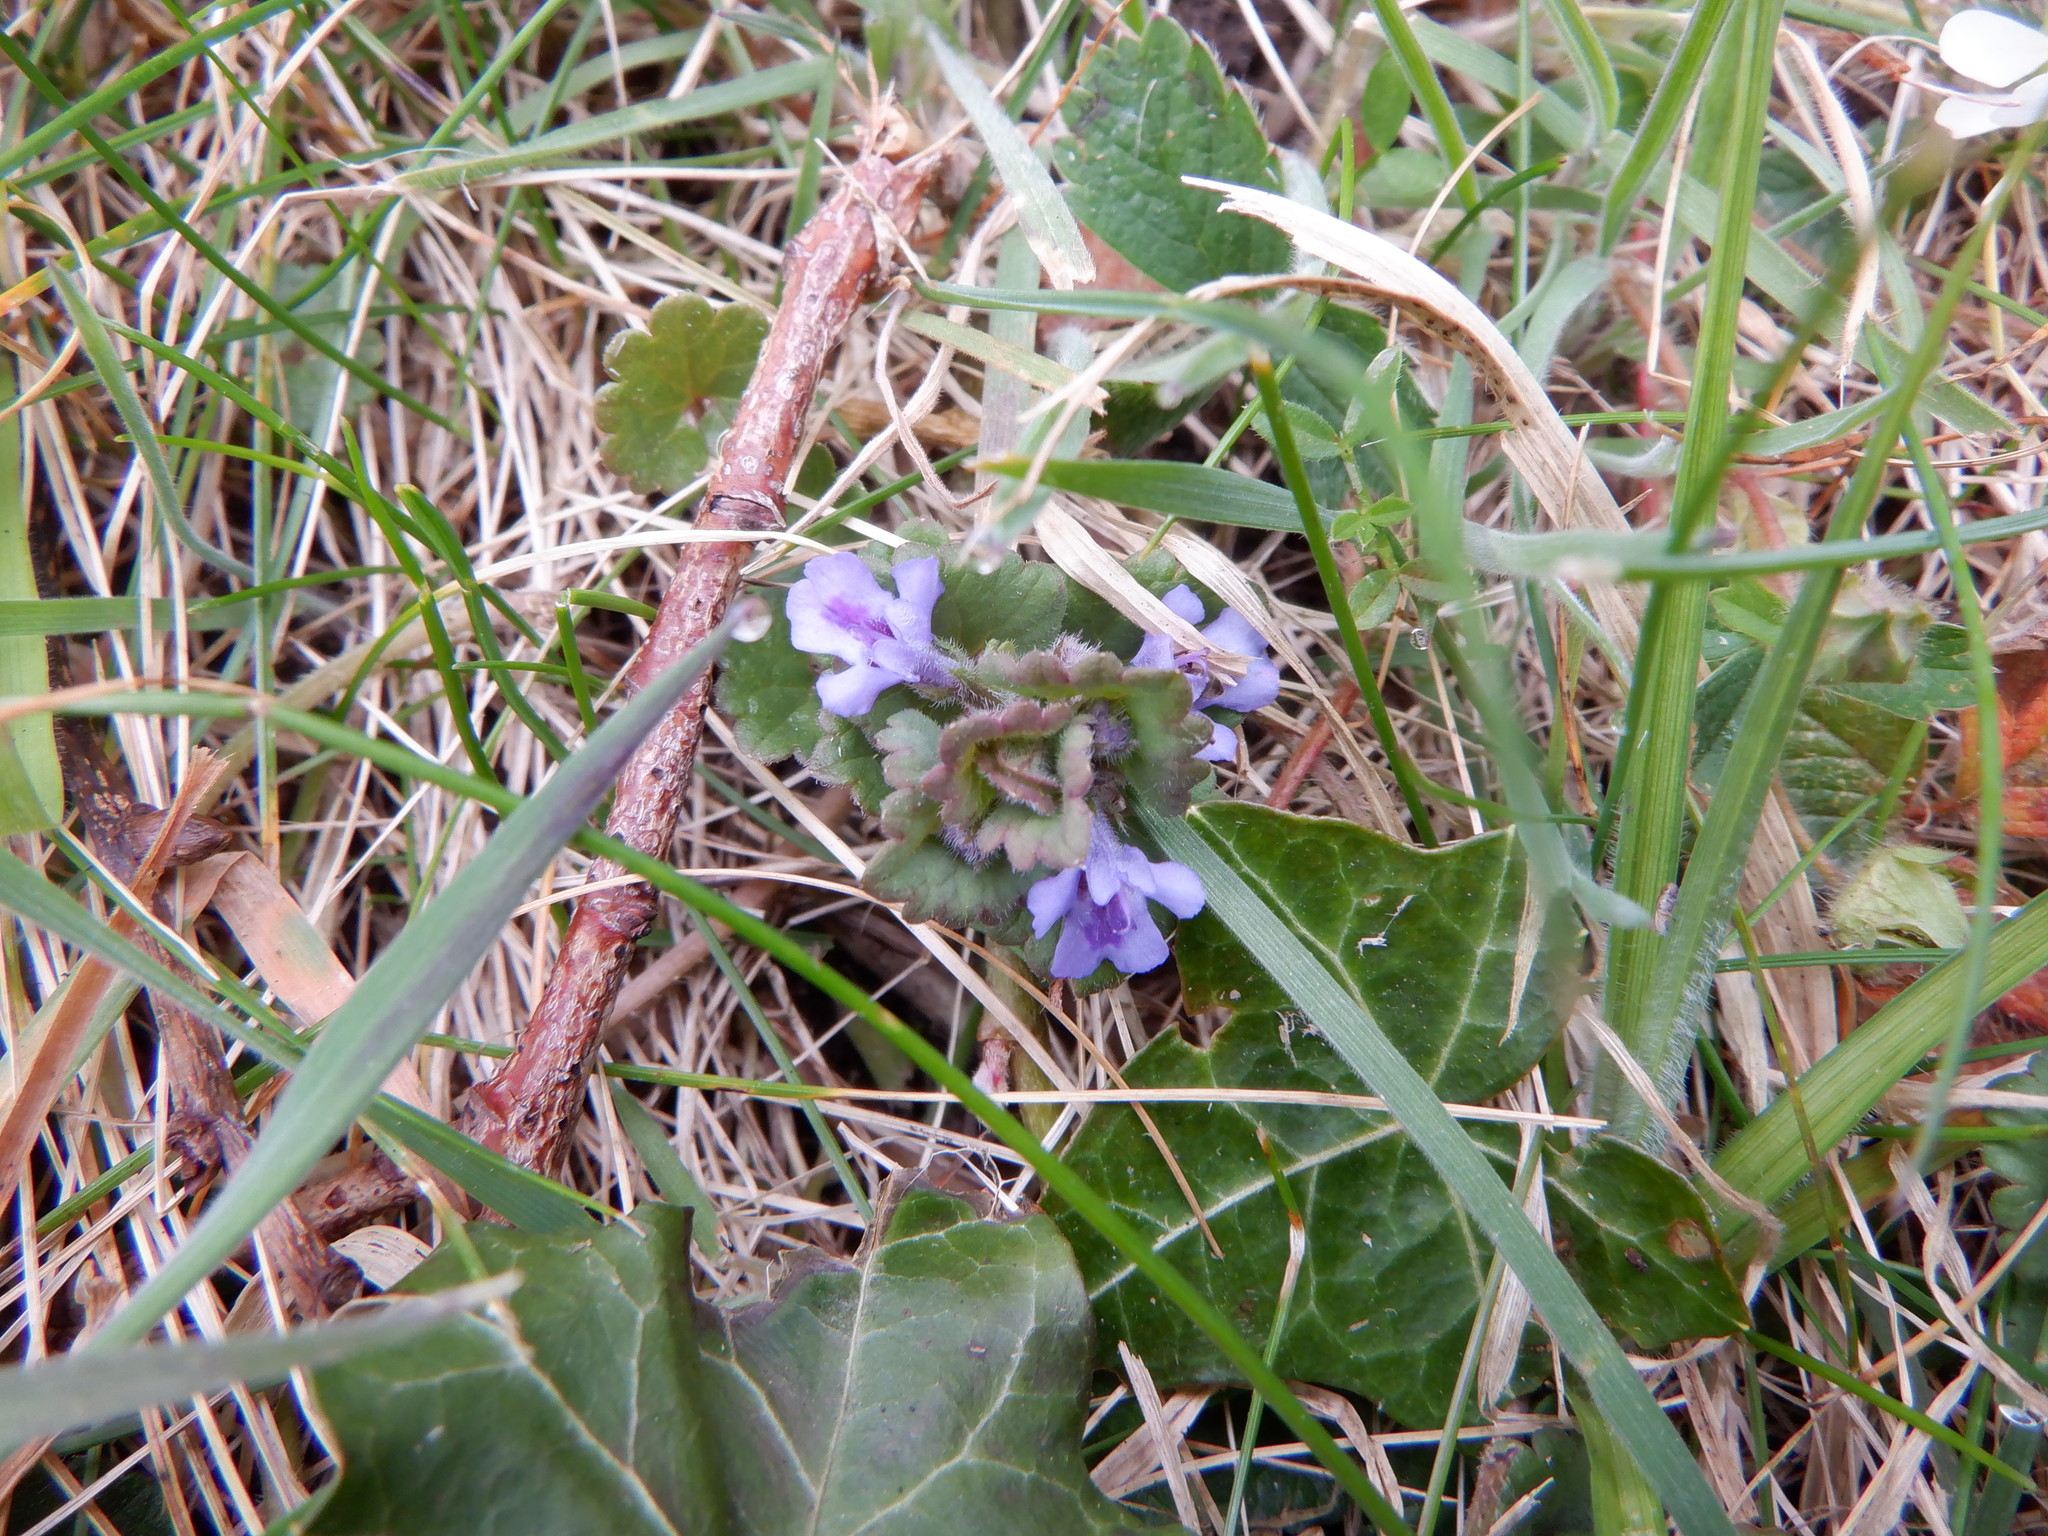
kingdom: Plantae
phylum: Tracheophyta
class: Magnoliopsida
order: Lamiales
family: Lamiaceae
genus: Glechoma
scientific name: Glechoma hederacea
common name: Ground ivy
